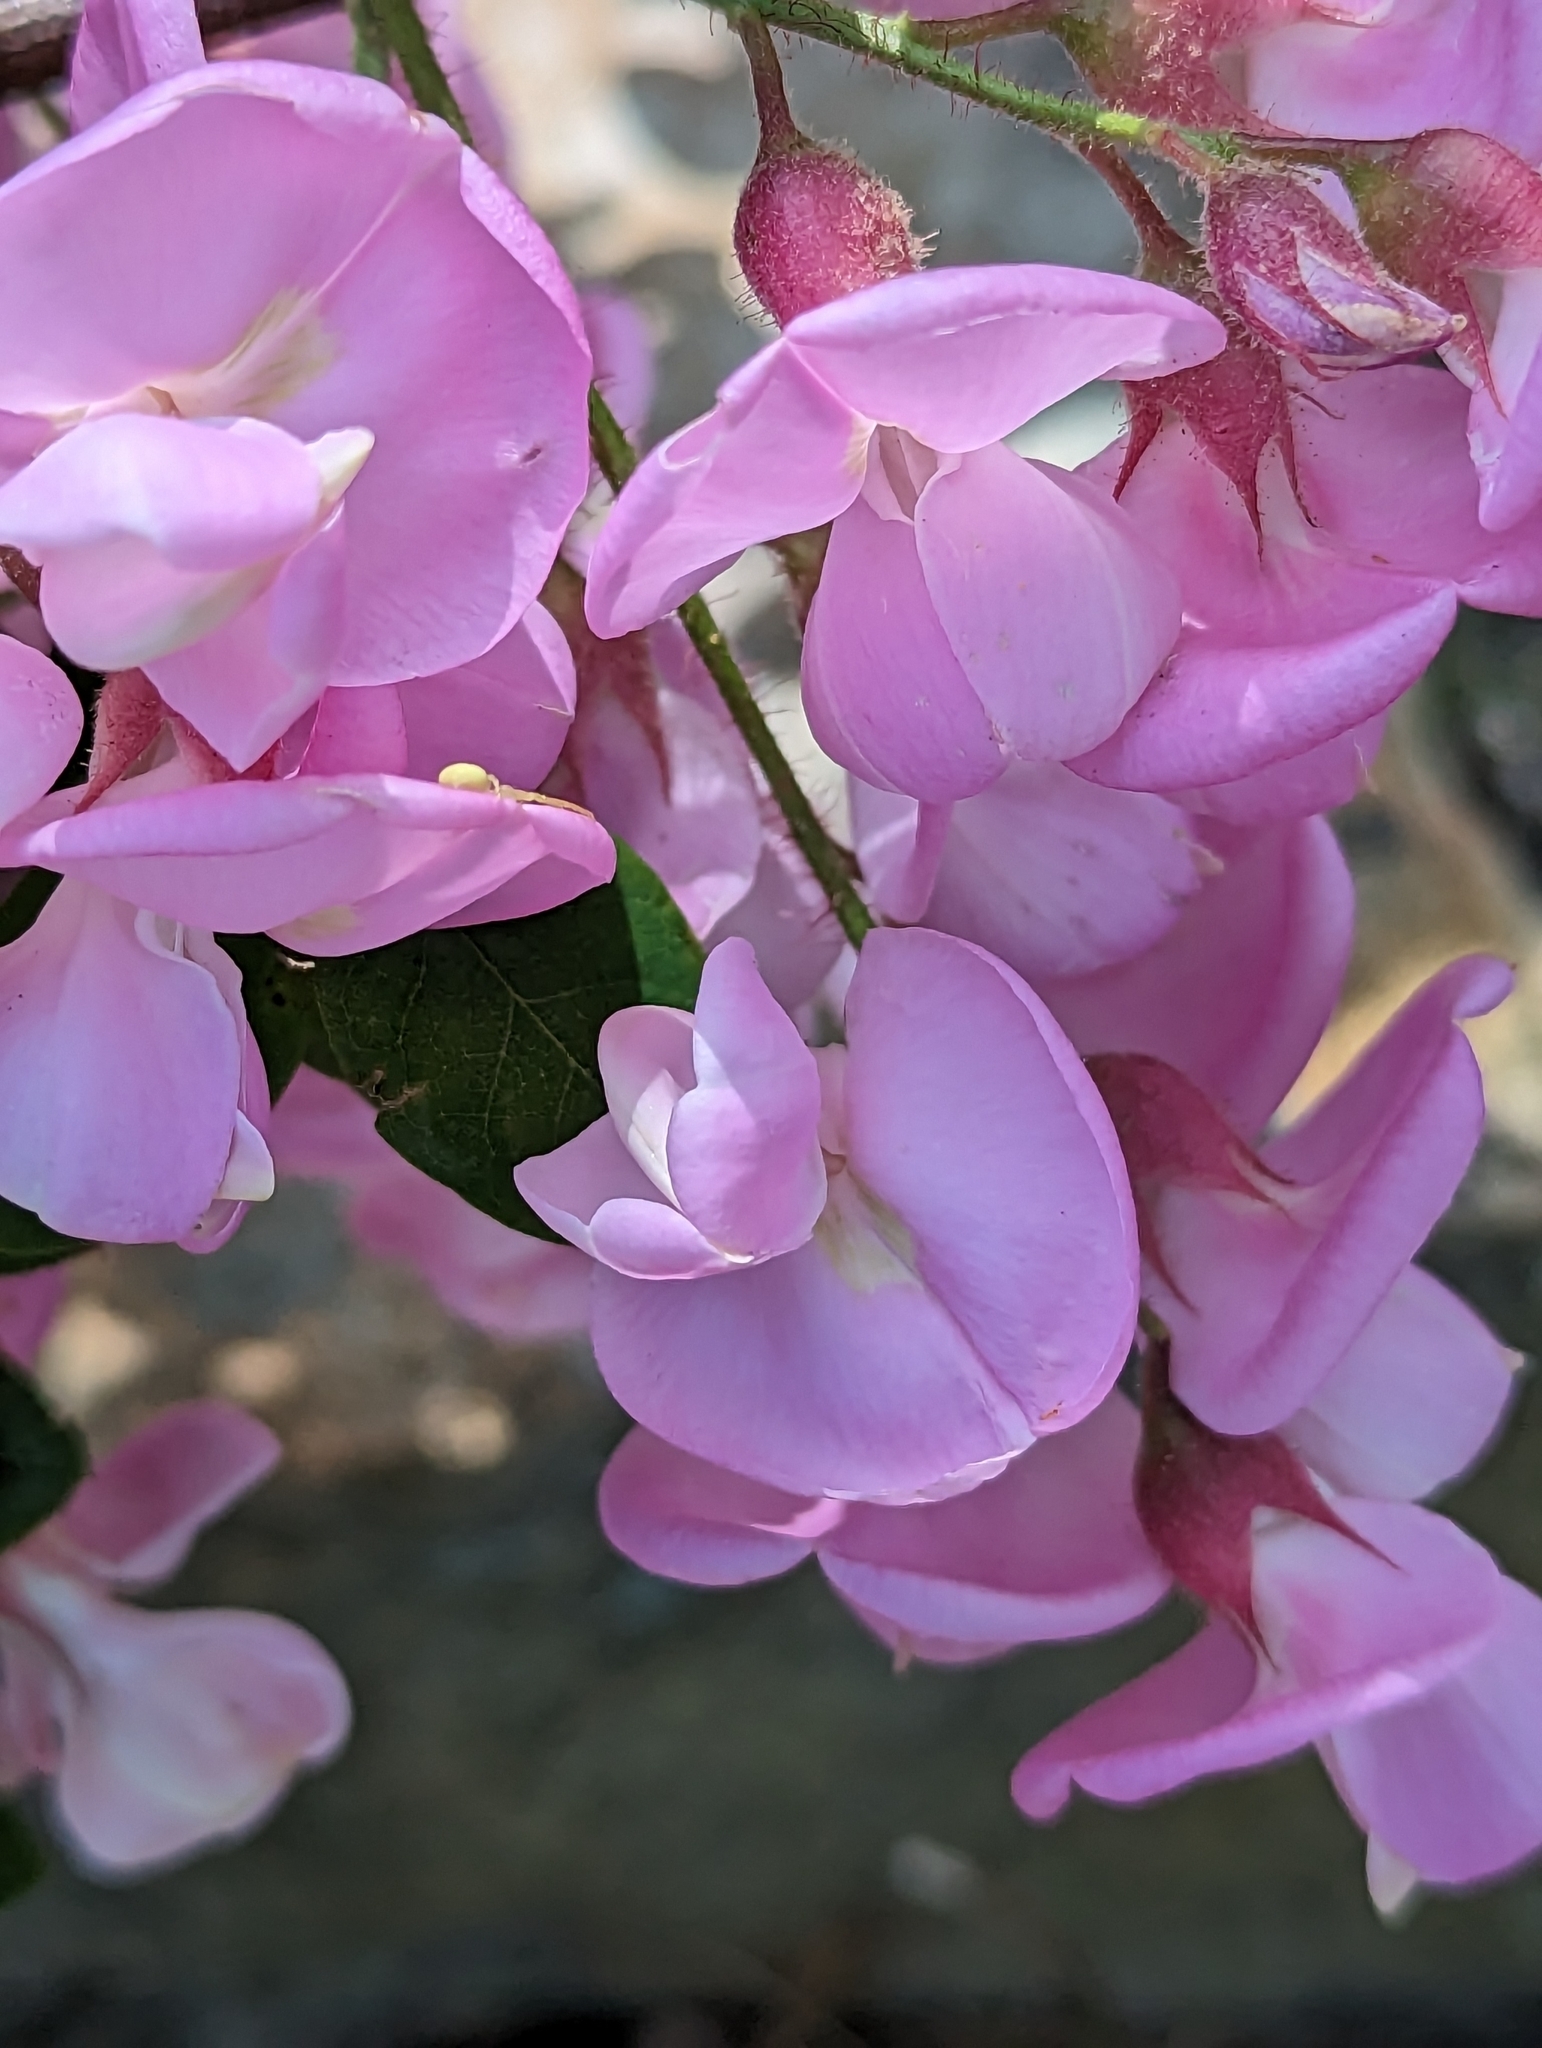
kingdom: Plantae
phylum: Tracheophyta
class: Magnoliopsida
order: Fabales
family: Fabaceae
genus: Robinia
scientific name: Robinia hispida
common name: Bristly locust
